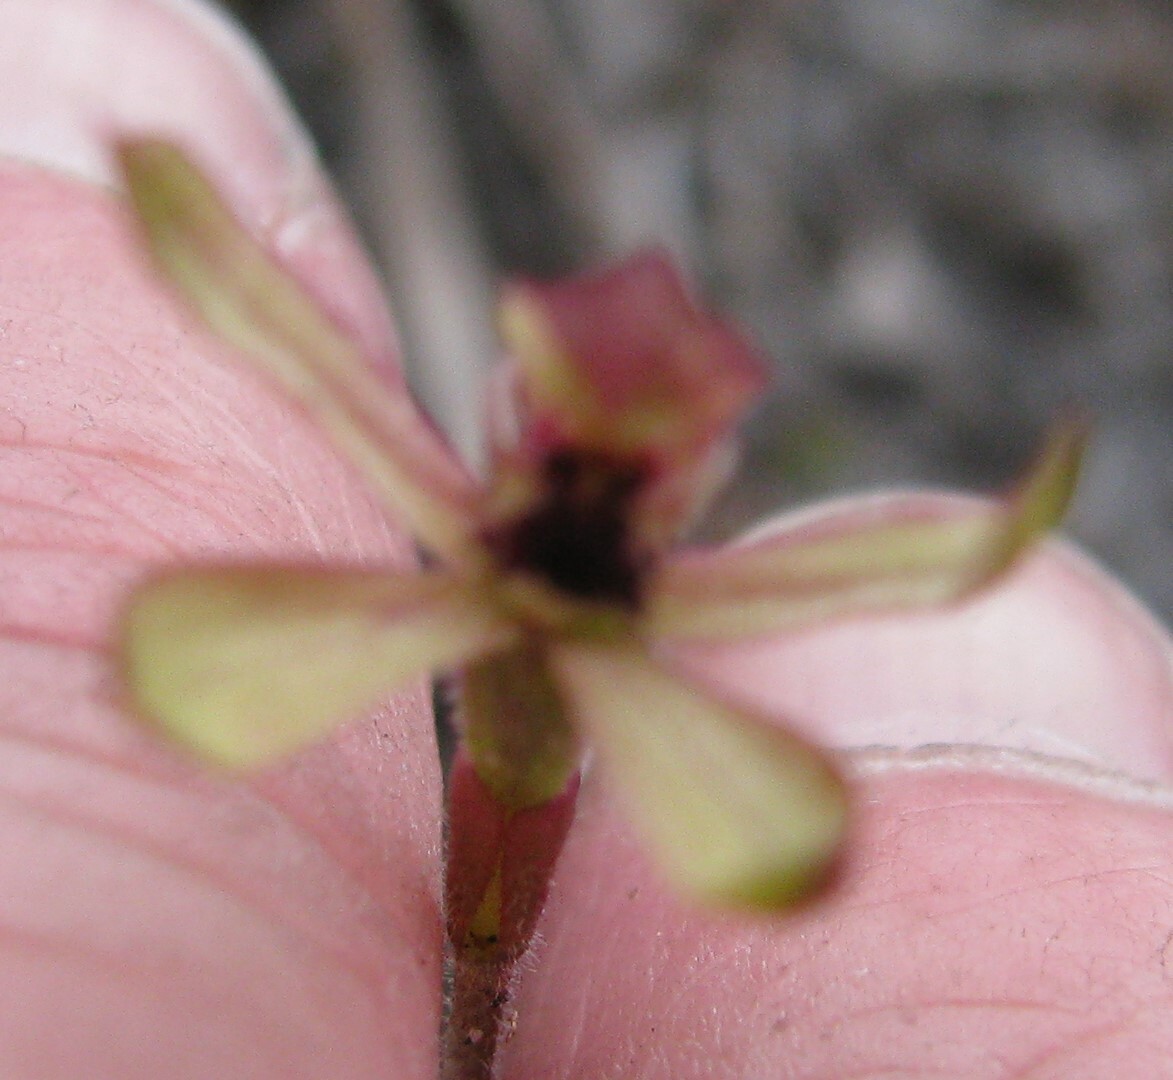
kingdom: Plantae
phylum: Tracheophyta
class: Liliopsida
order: Asparagales
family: Orchidaceae
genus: Caladenia
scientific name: Caladenia transitoria
